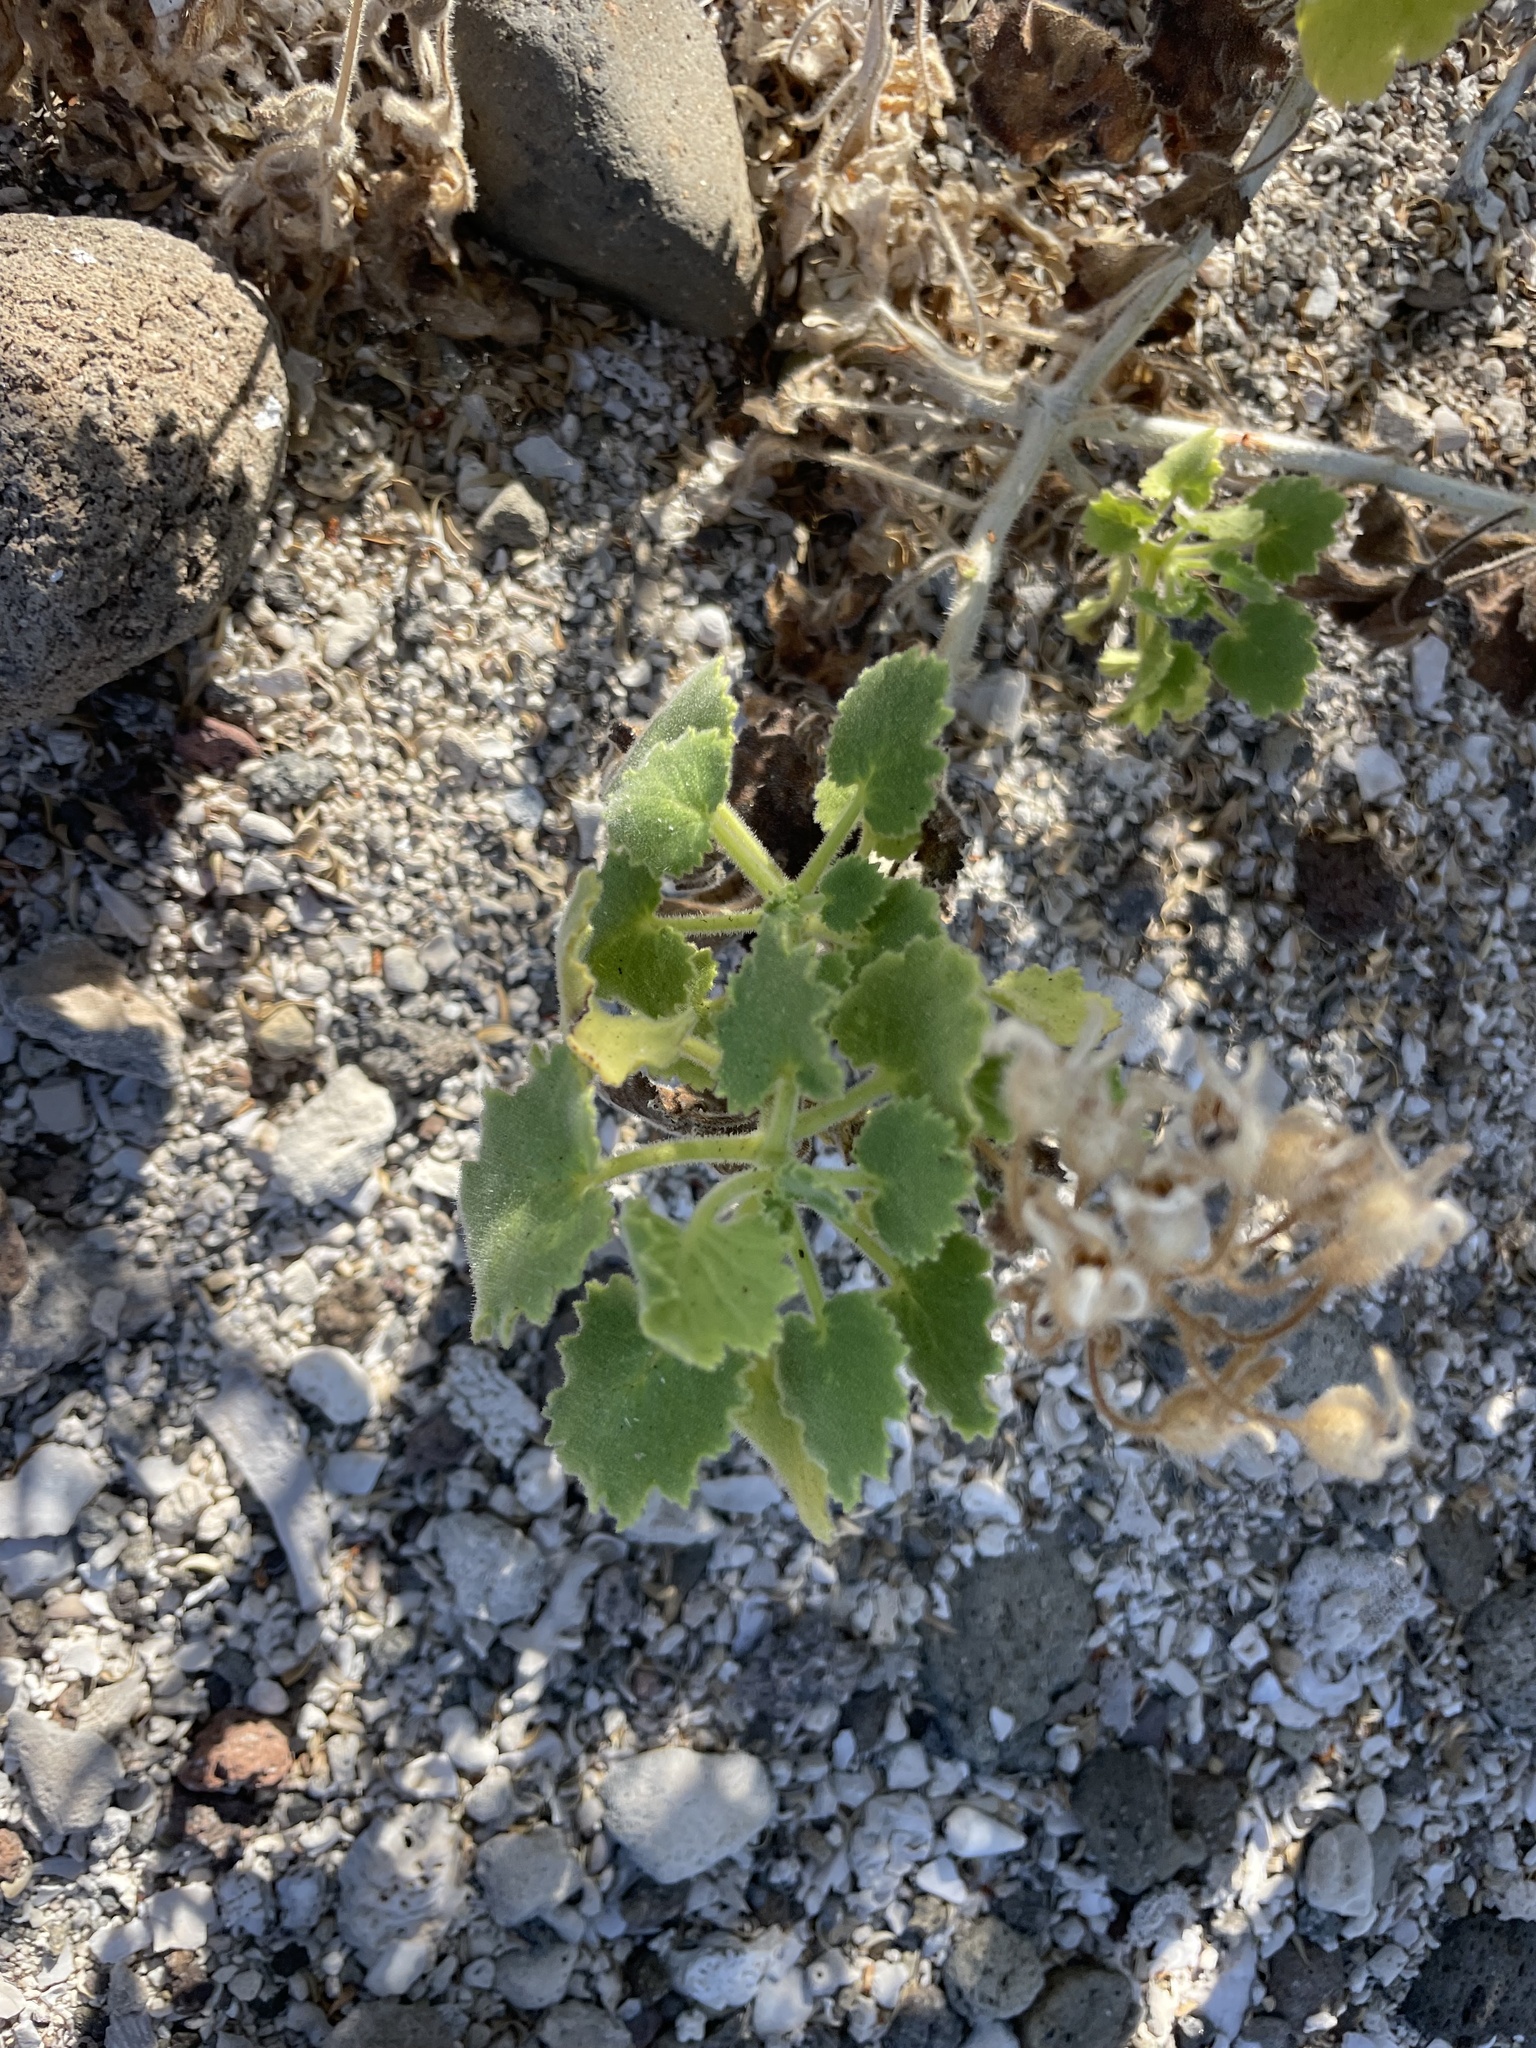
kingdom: Plantae
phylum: Tracheophyta
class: Magnoliopsida
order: Cornales
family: Loasaceae
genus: Eucnide
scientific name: Eucnide cordata
